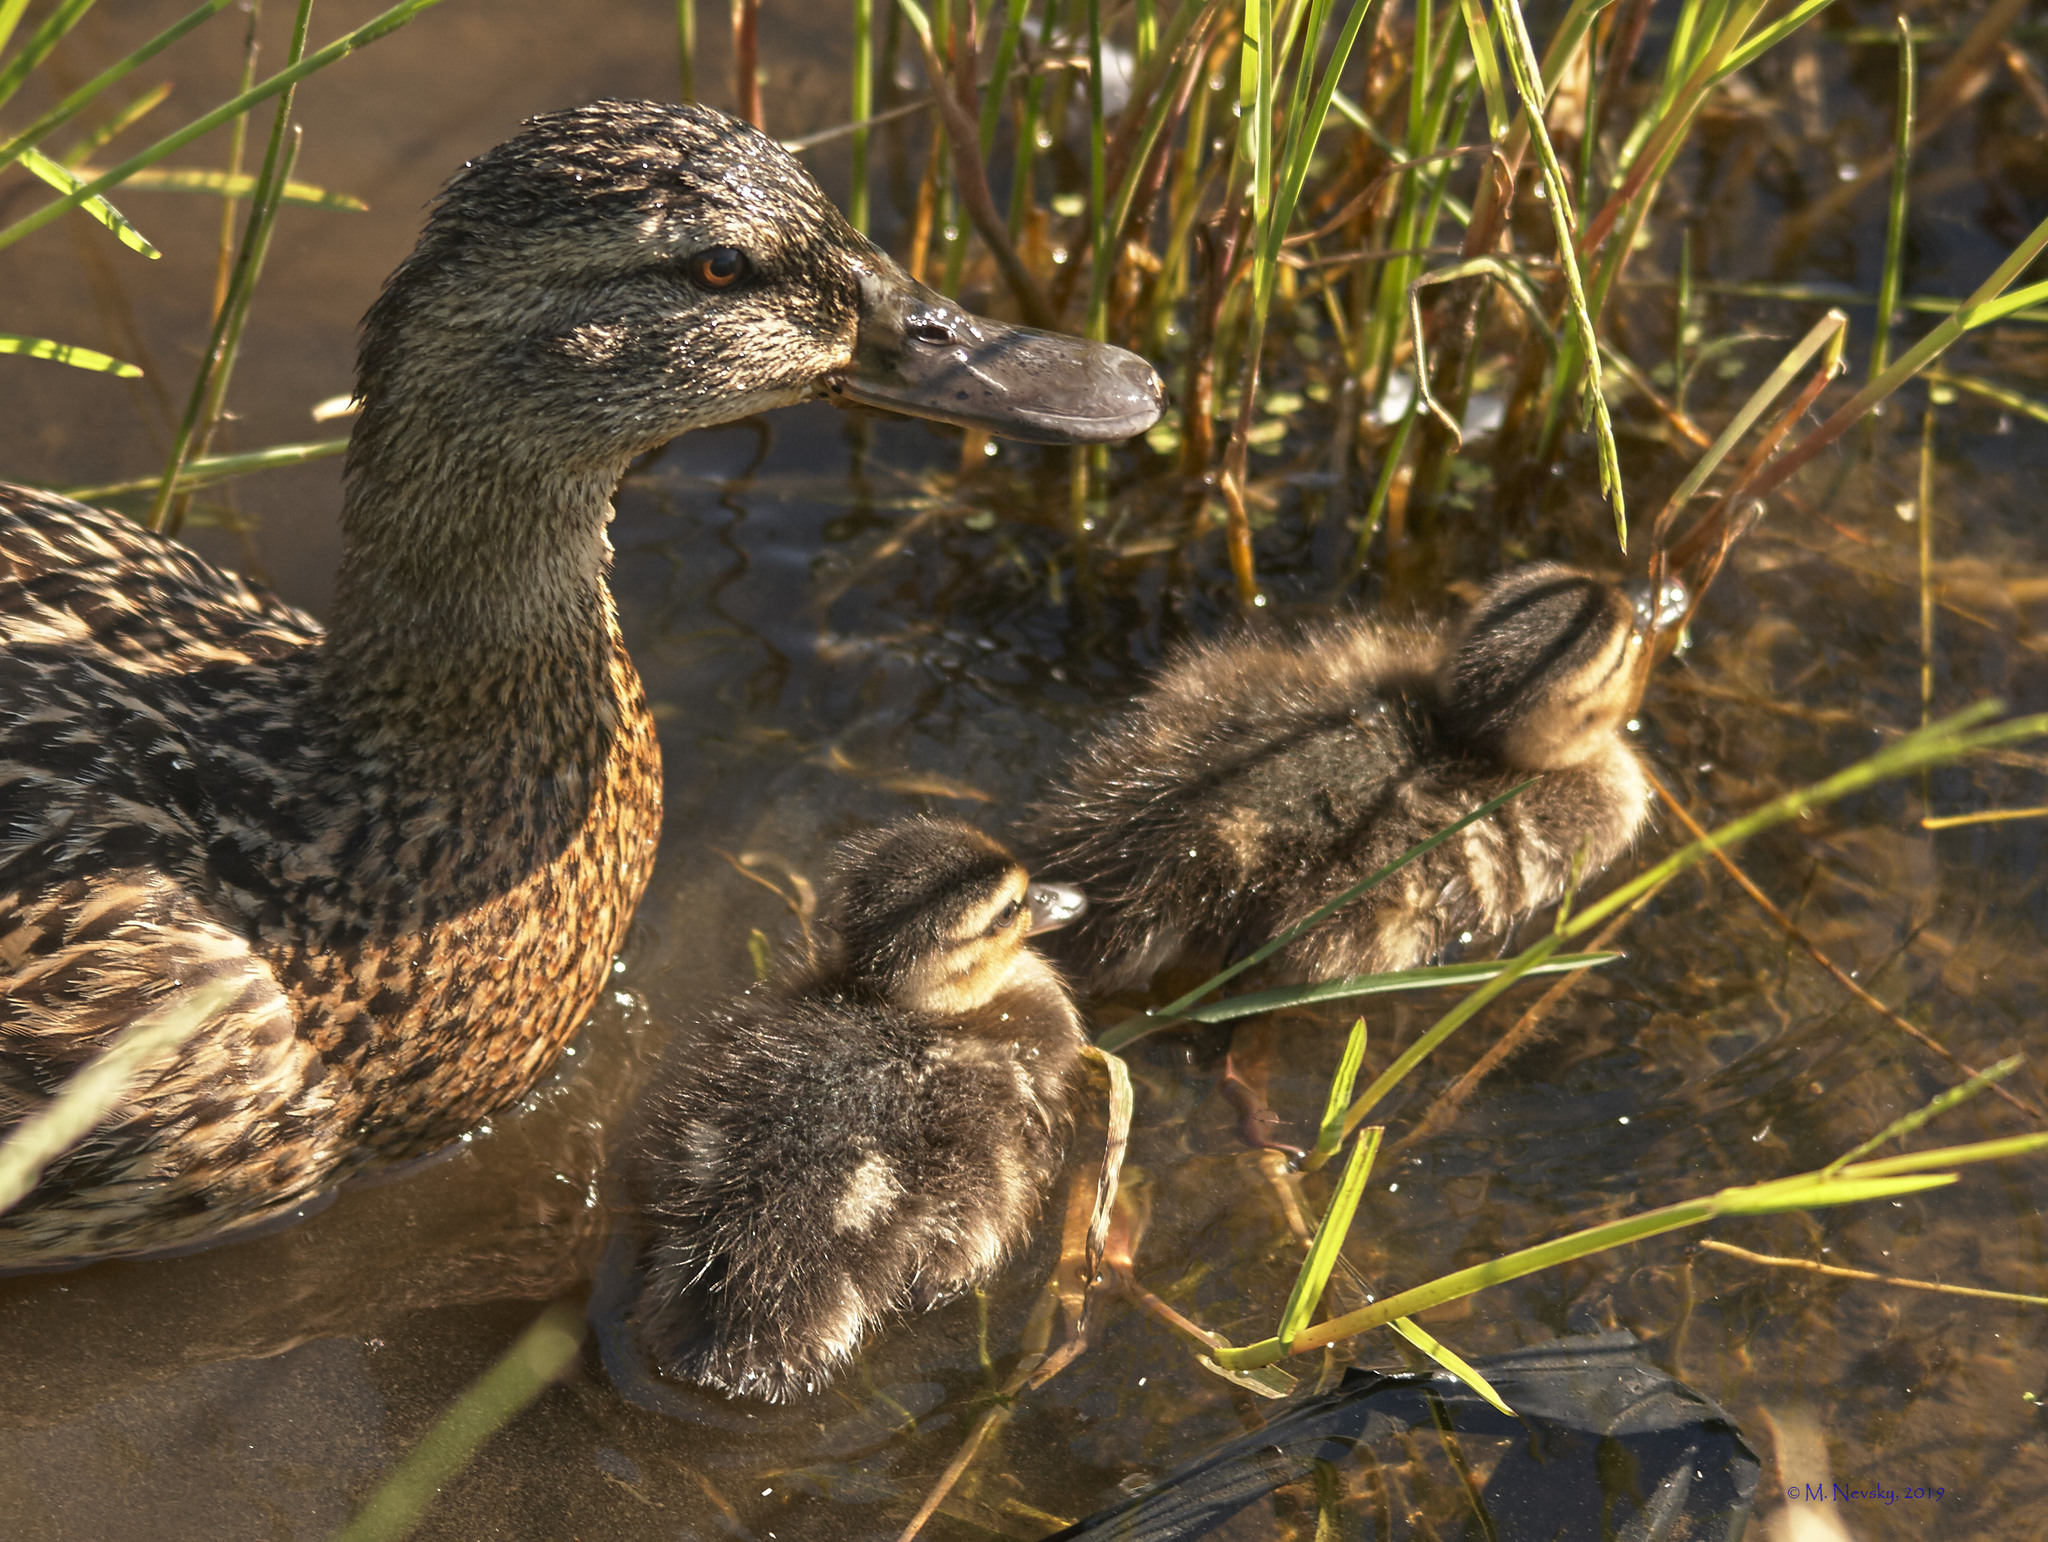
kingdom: Animalia
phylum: Chordata
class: Aves
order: Anseriformes
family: Anatidae
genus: Anas
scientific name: Anas platyrhynchos
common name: Mallard
